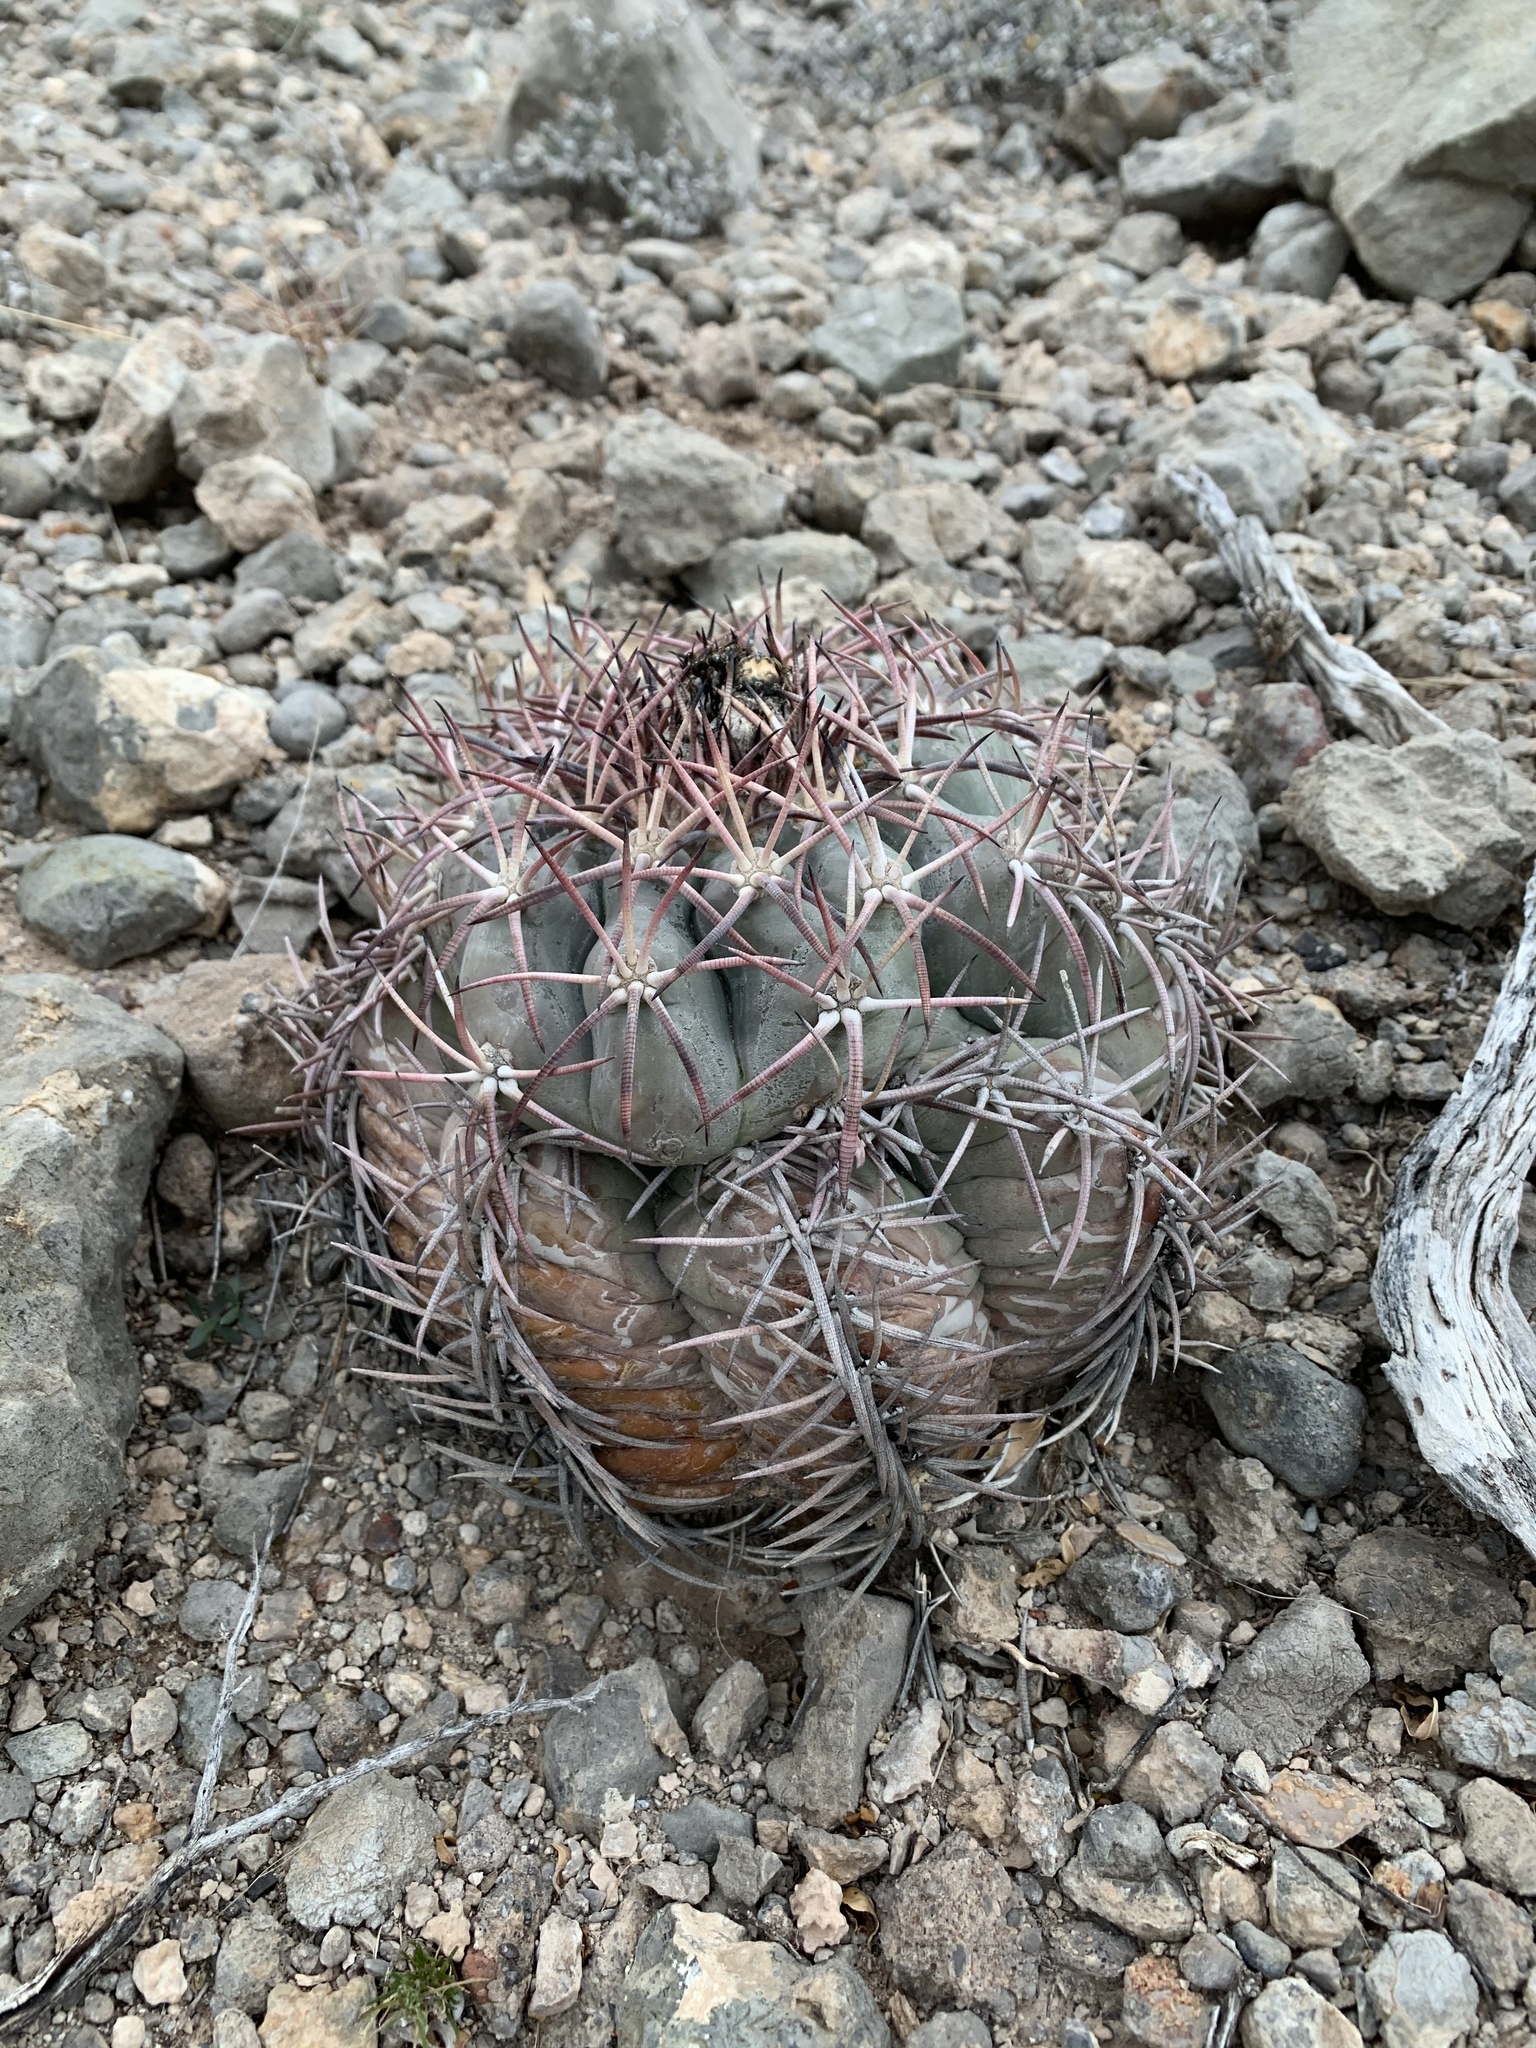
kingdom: Plantae
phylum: Tracheophyta
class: Magnoliopsida
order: Caryophyllales
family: Cactaceae
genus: Echinocactus
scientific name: Echinocactus horizonthalonius
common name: Devilshead
